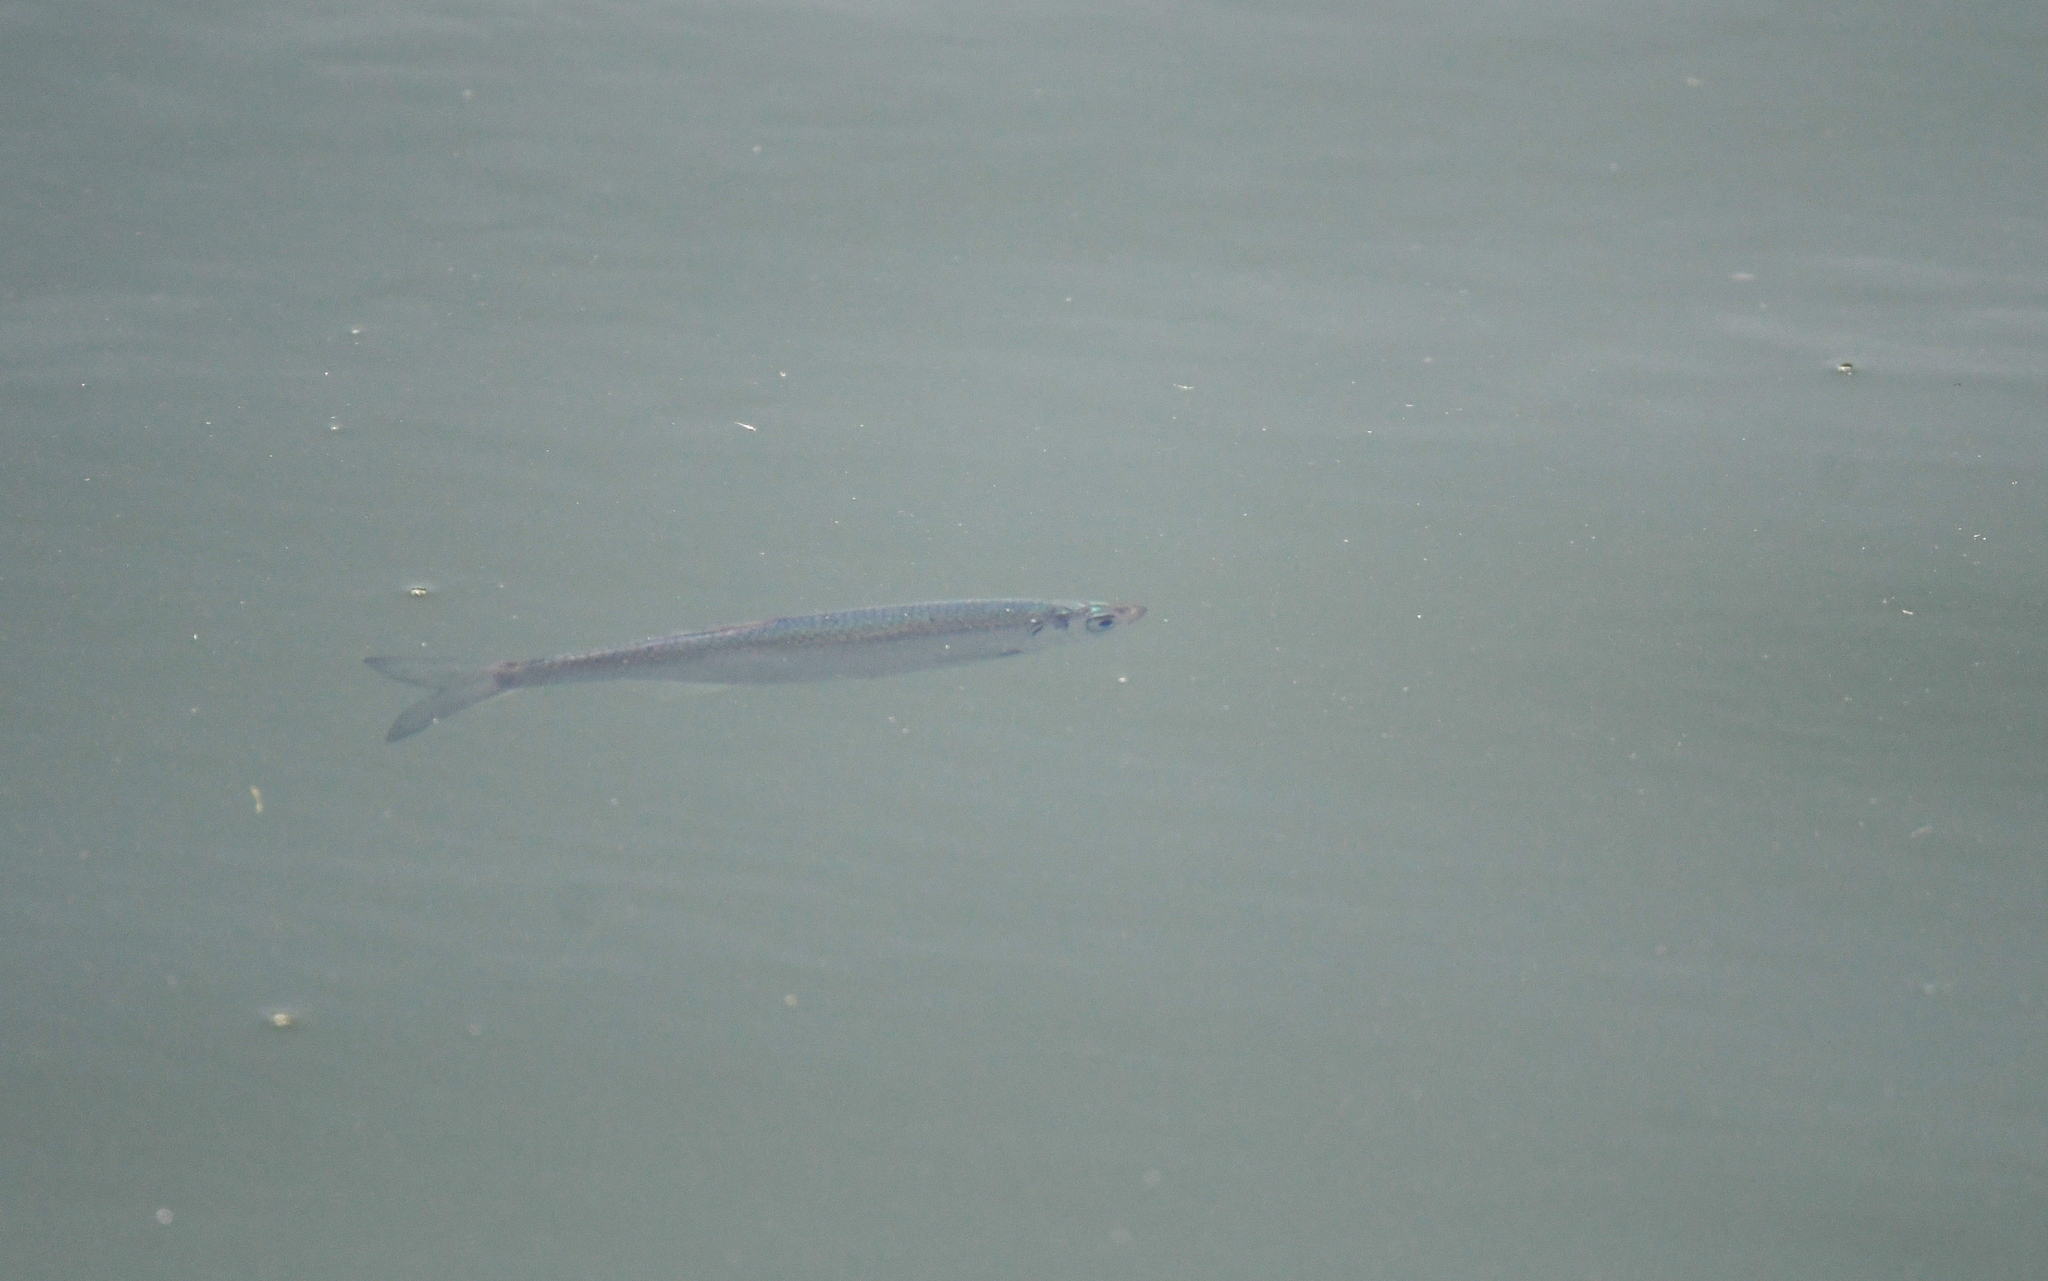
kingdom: Animalia
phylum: Chordata
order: Cypriniformes
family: Cyprinidae
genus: Alburnus
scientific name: Alburnus alburnus
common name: Bleak
